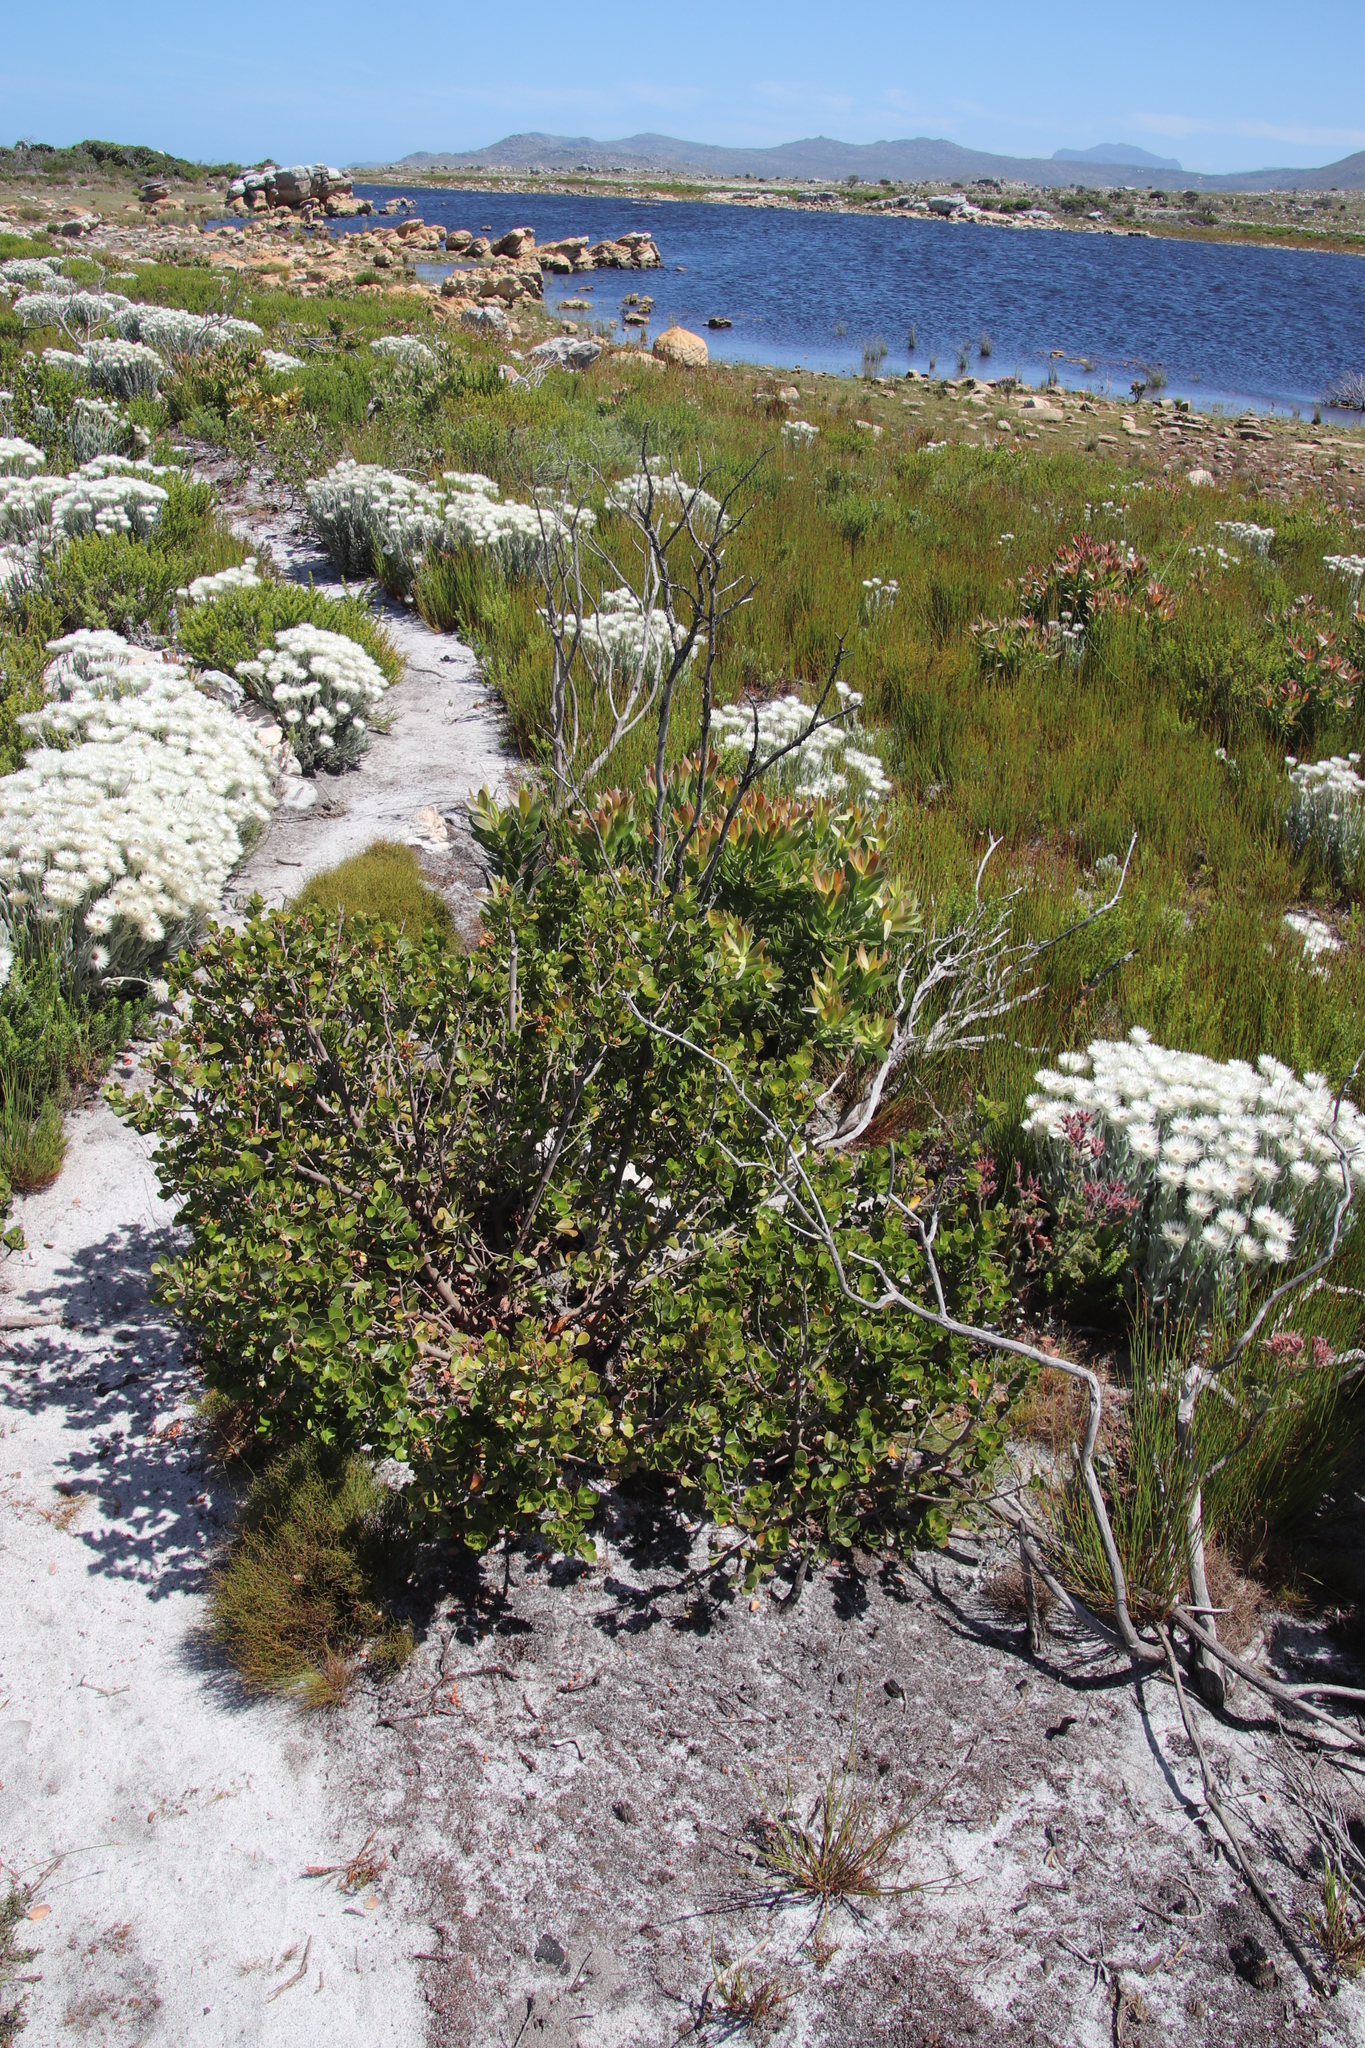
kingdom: Plantae
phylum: Tracheophyta
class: Magnoliopsida
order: Sapindales
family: Anacardiaceae
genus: Searsia
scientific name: Searsia lucida
